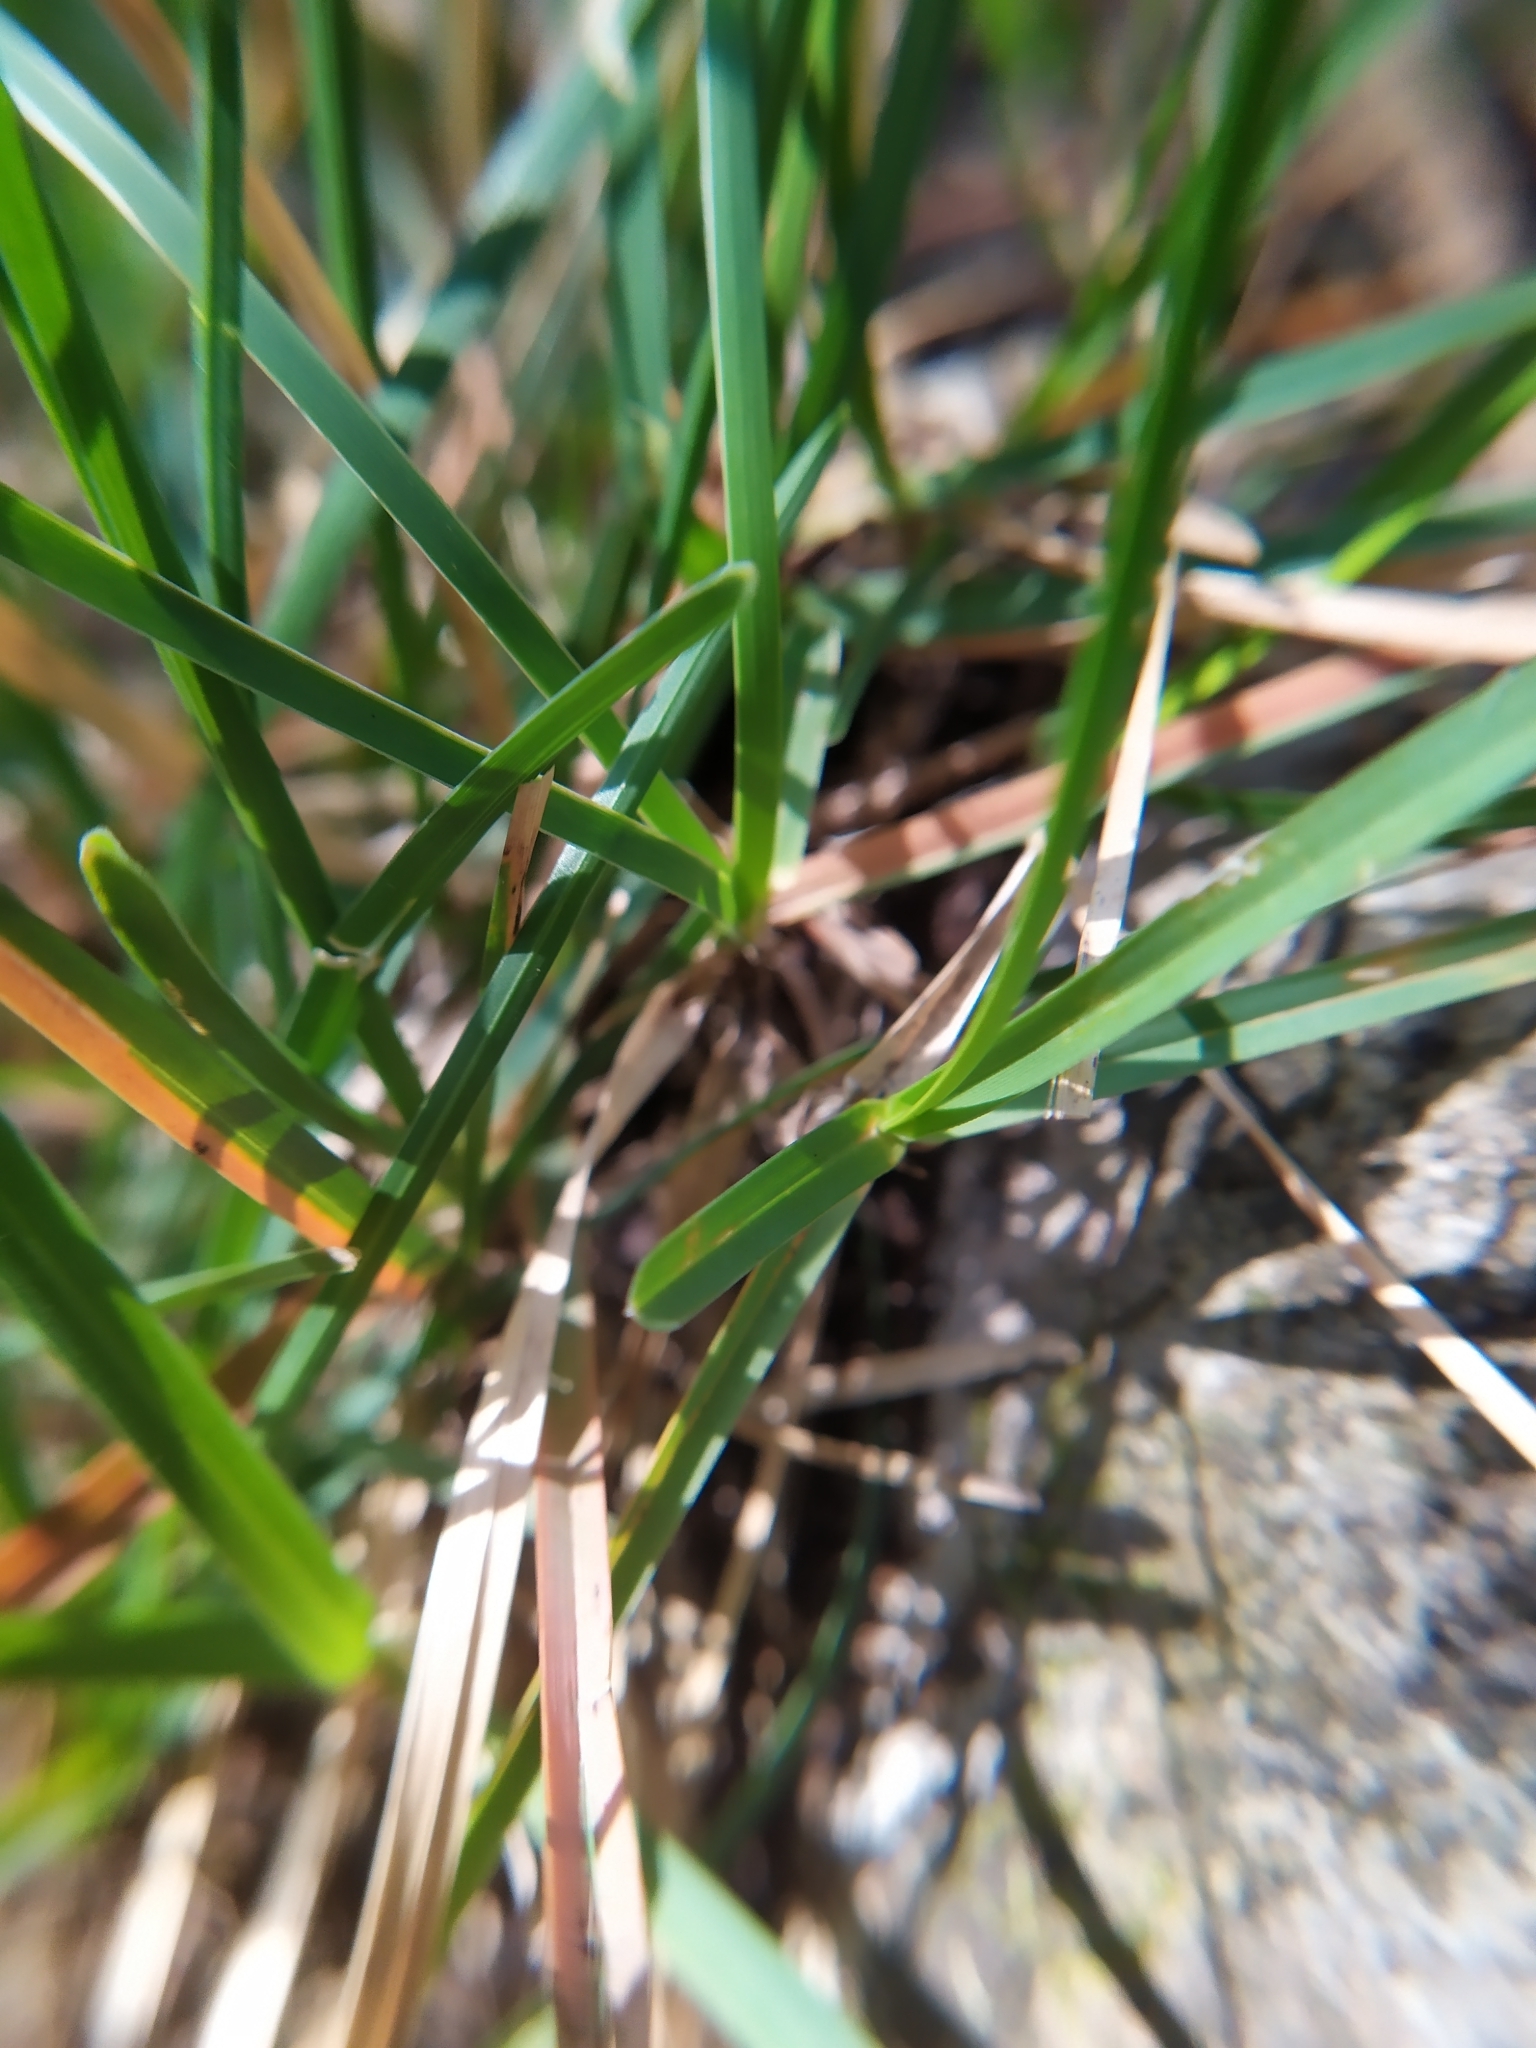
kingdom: Plantae
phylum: Tracheophyta
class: Liliopsida
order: Poales
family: Poaceae
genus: Sesleria
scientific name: Sesleria albicans
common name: Blue moor-grass
